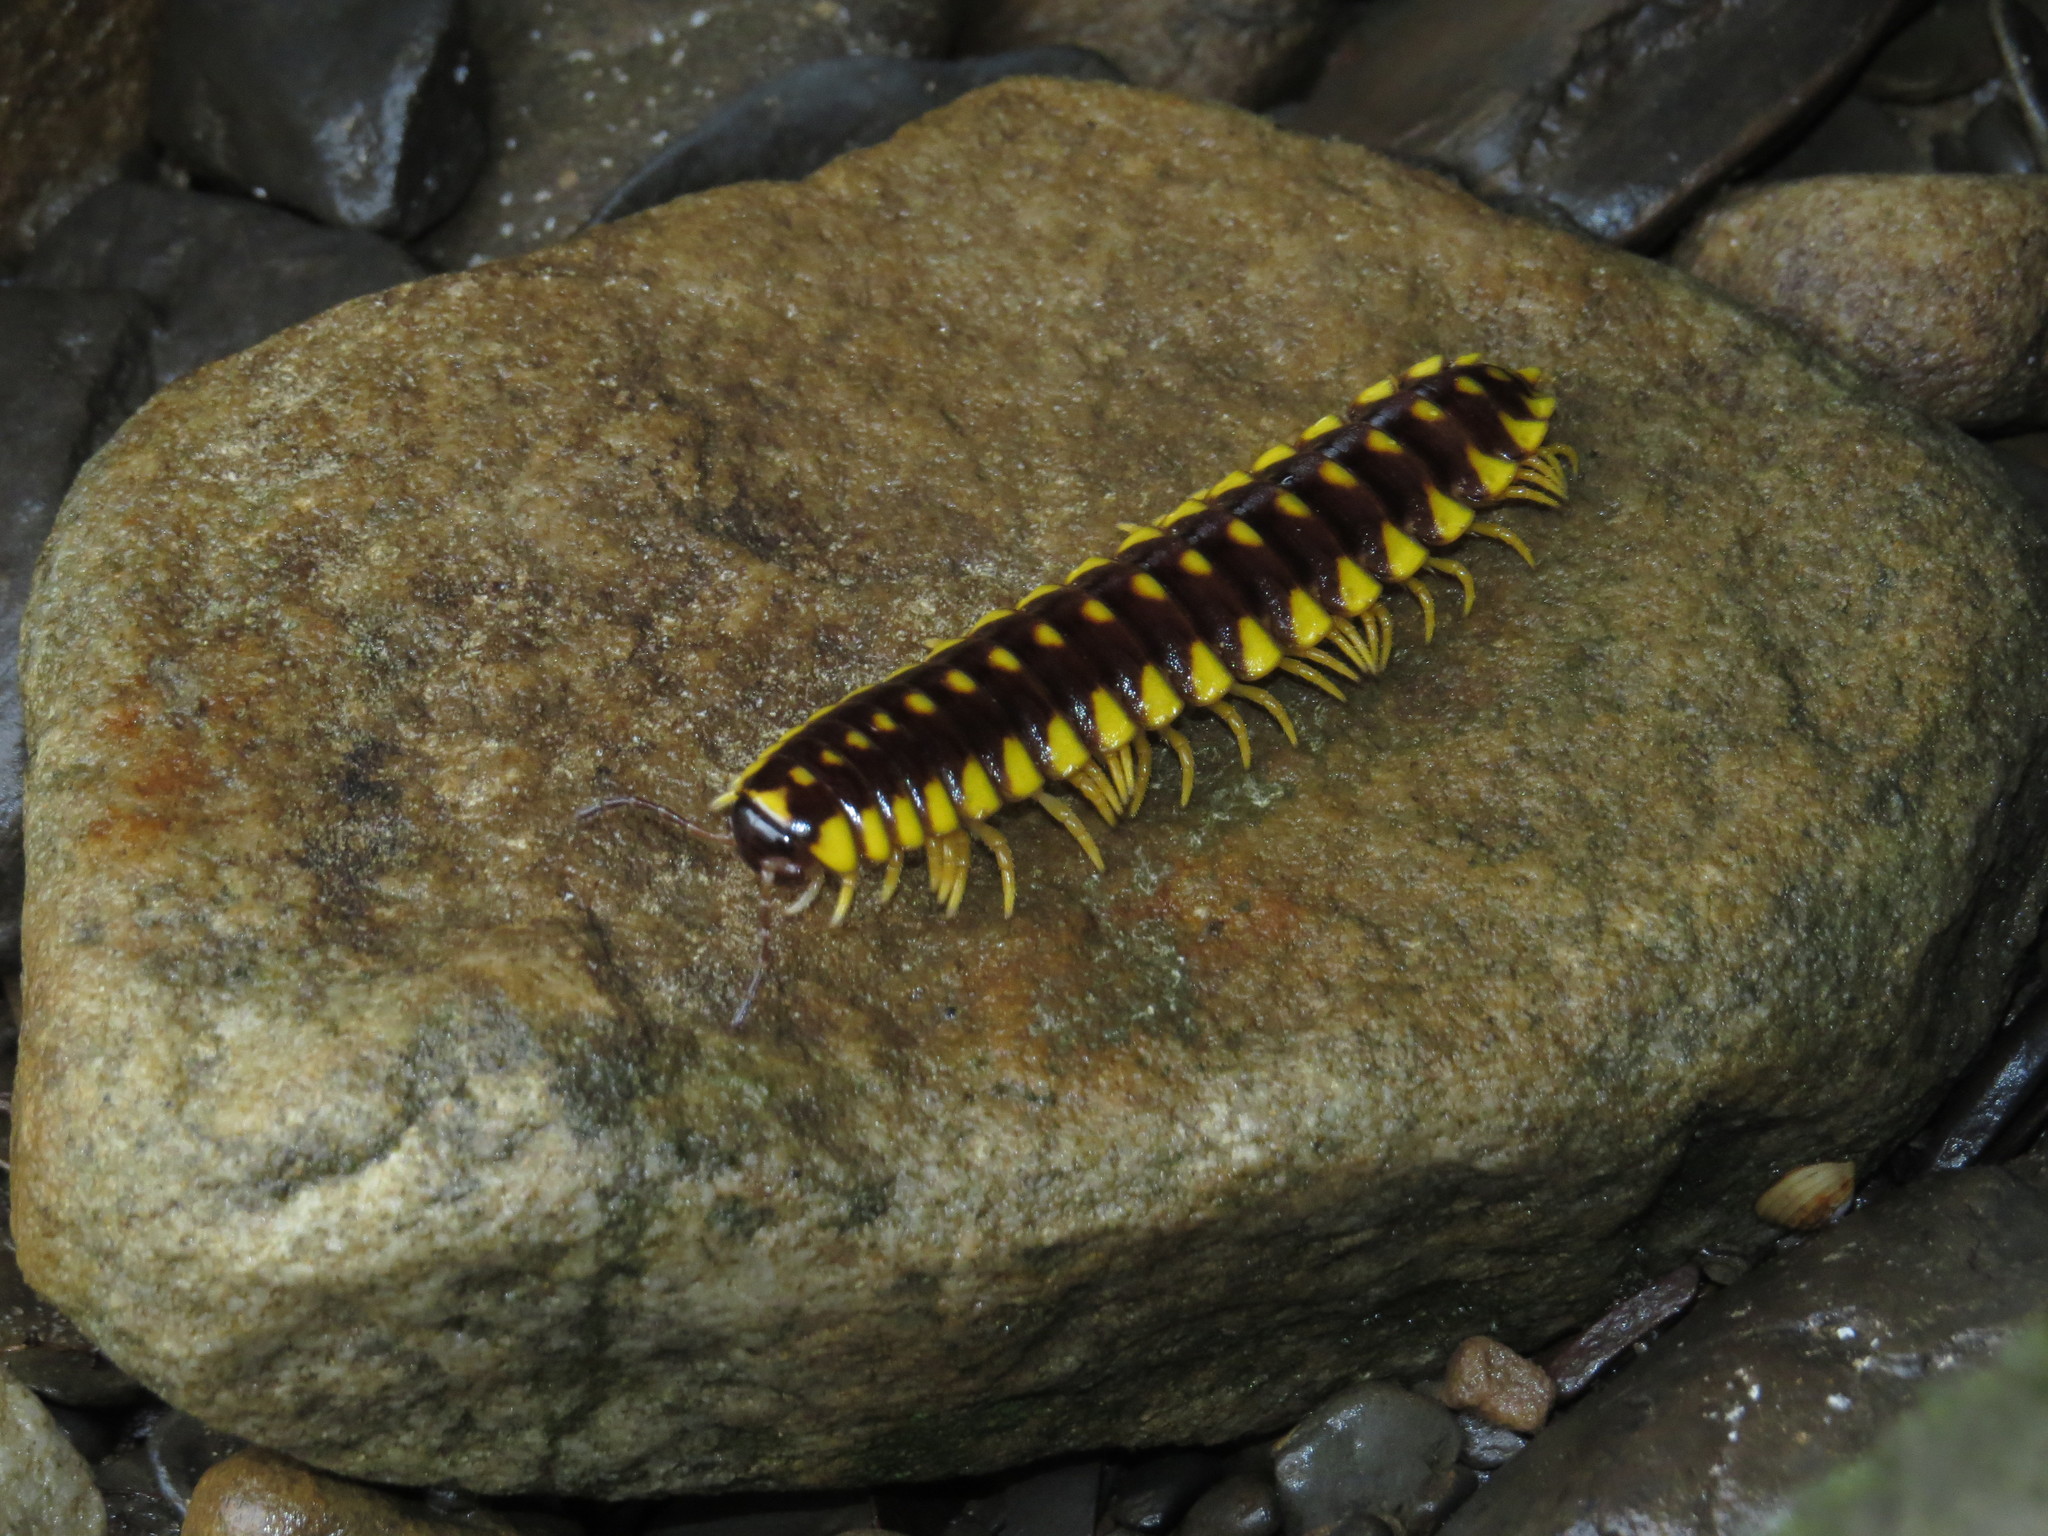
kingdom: Animalia
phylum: Arthropoda
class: Diplopoda
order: Polydesmida
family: Xystodesmidae
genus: Cherokia
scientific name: Cherokia georgiana
